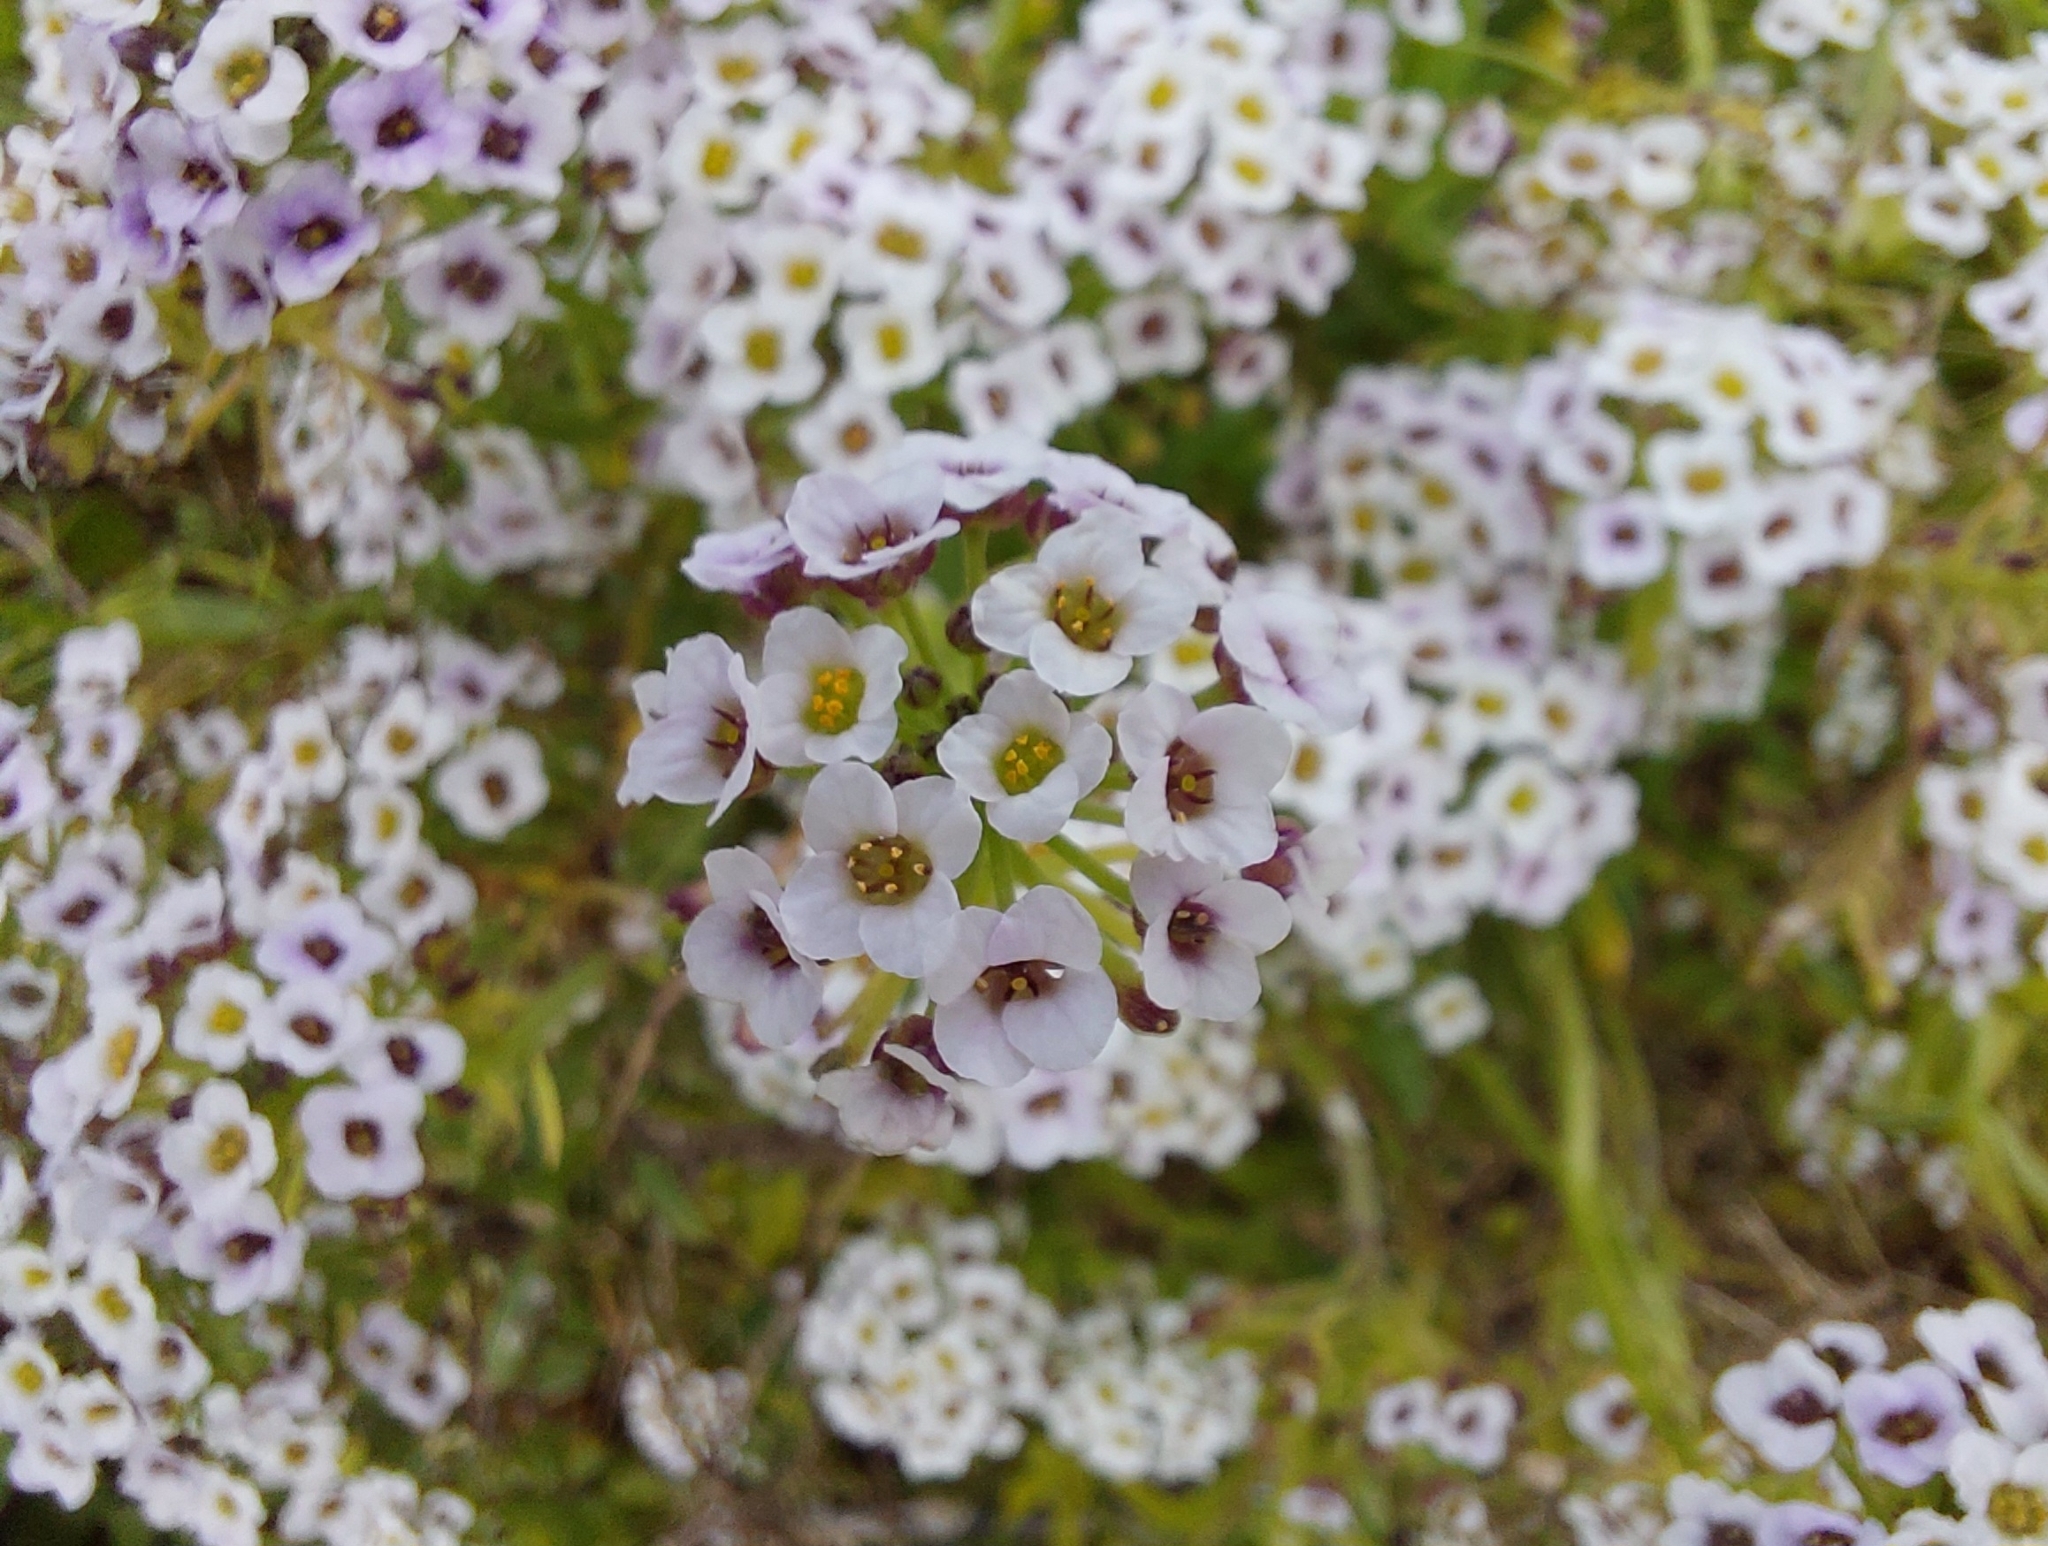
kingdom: Plantae
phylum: Tracheophyta
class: Magnoliopsida
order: Brassicales
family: Brassicaceae
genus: Lobularia
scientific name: Lobularia maritima
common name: Sweet alison
